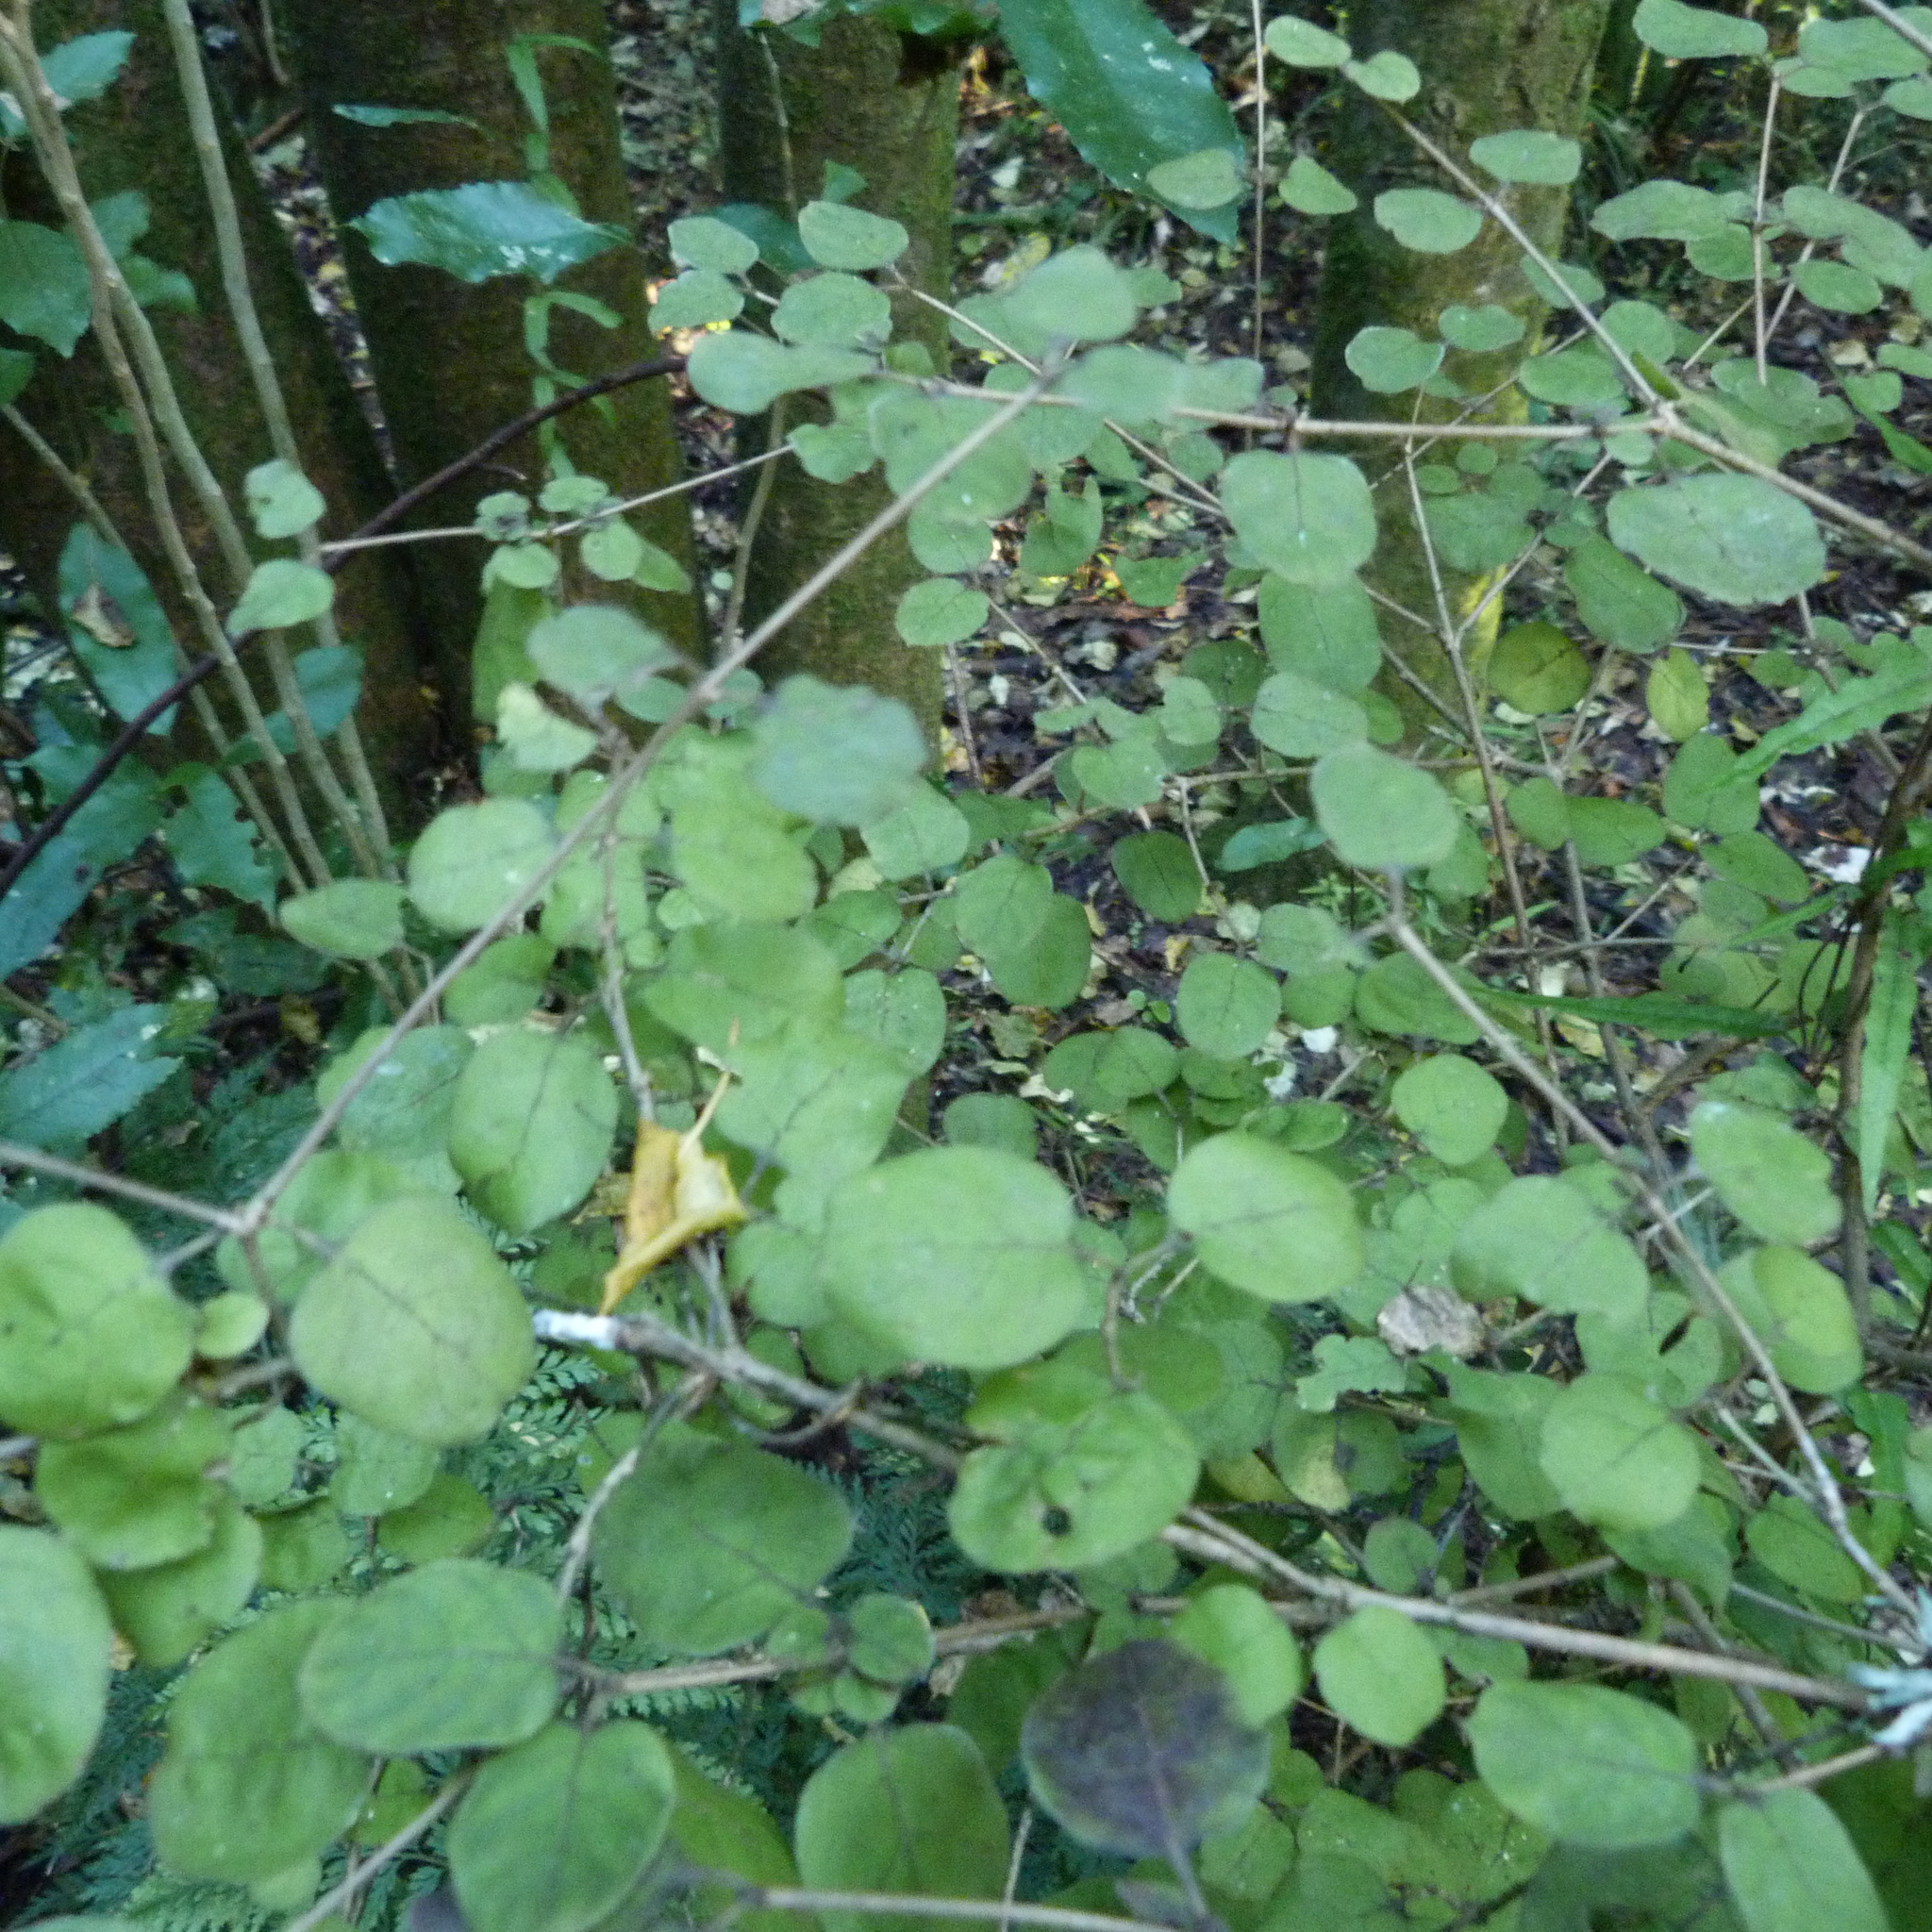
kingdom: Plantae
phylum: Tracheophyta
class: Magnoliopsida
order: Gentianales
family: Rubiaceae
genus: Coprosma
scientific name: Coprosma rotundifolia
